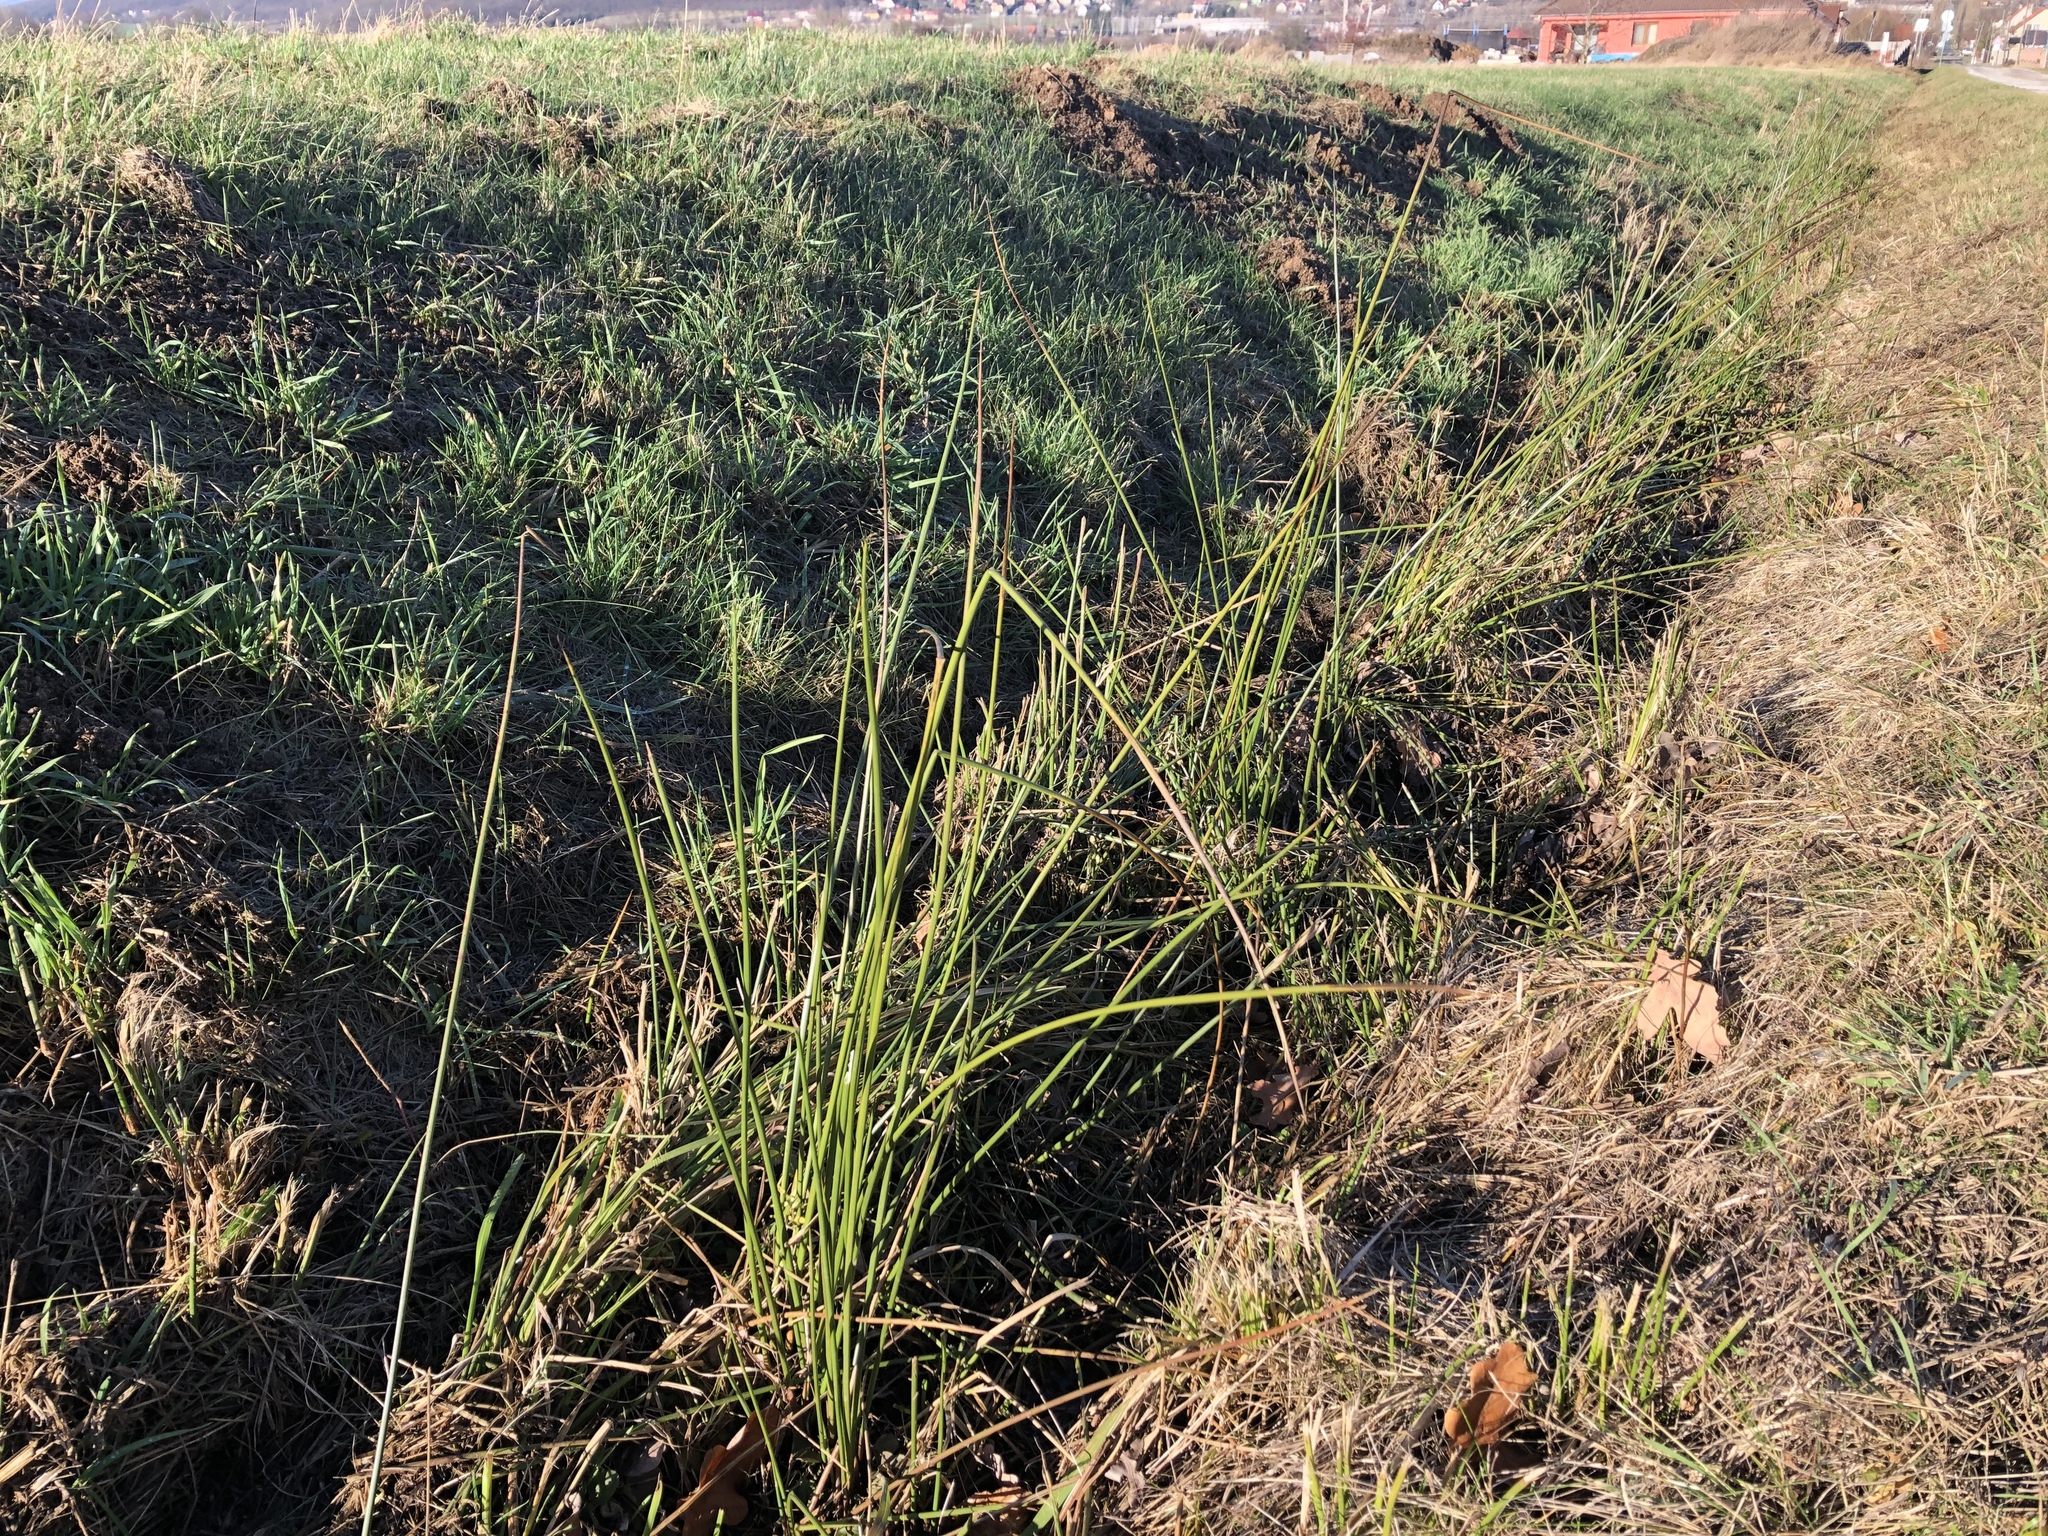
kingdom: Plantae
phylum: Tracheophyta
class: Liliopsida
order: Poales
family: Juncaceae
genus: Juncus
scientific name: Juncus effusus
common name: Soft rush
